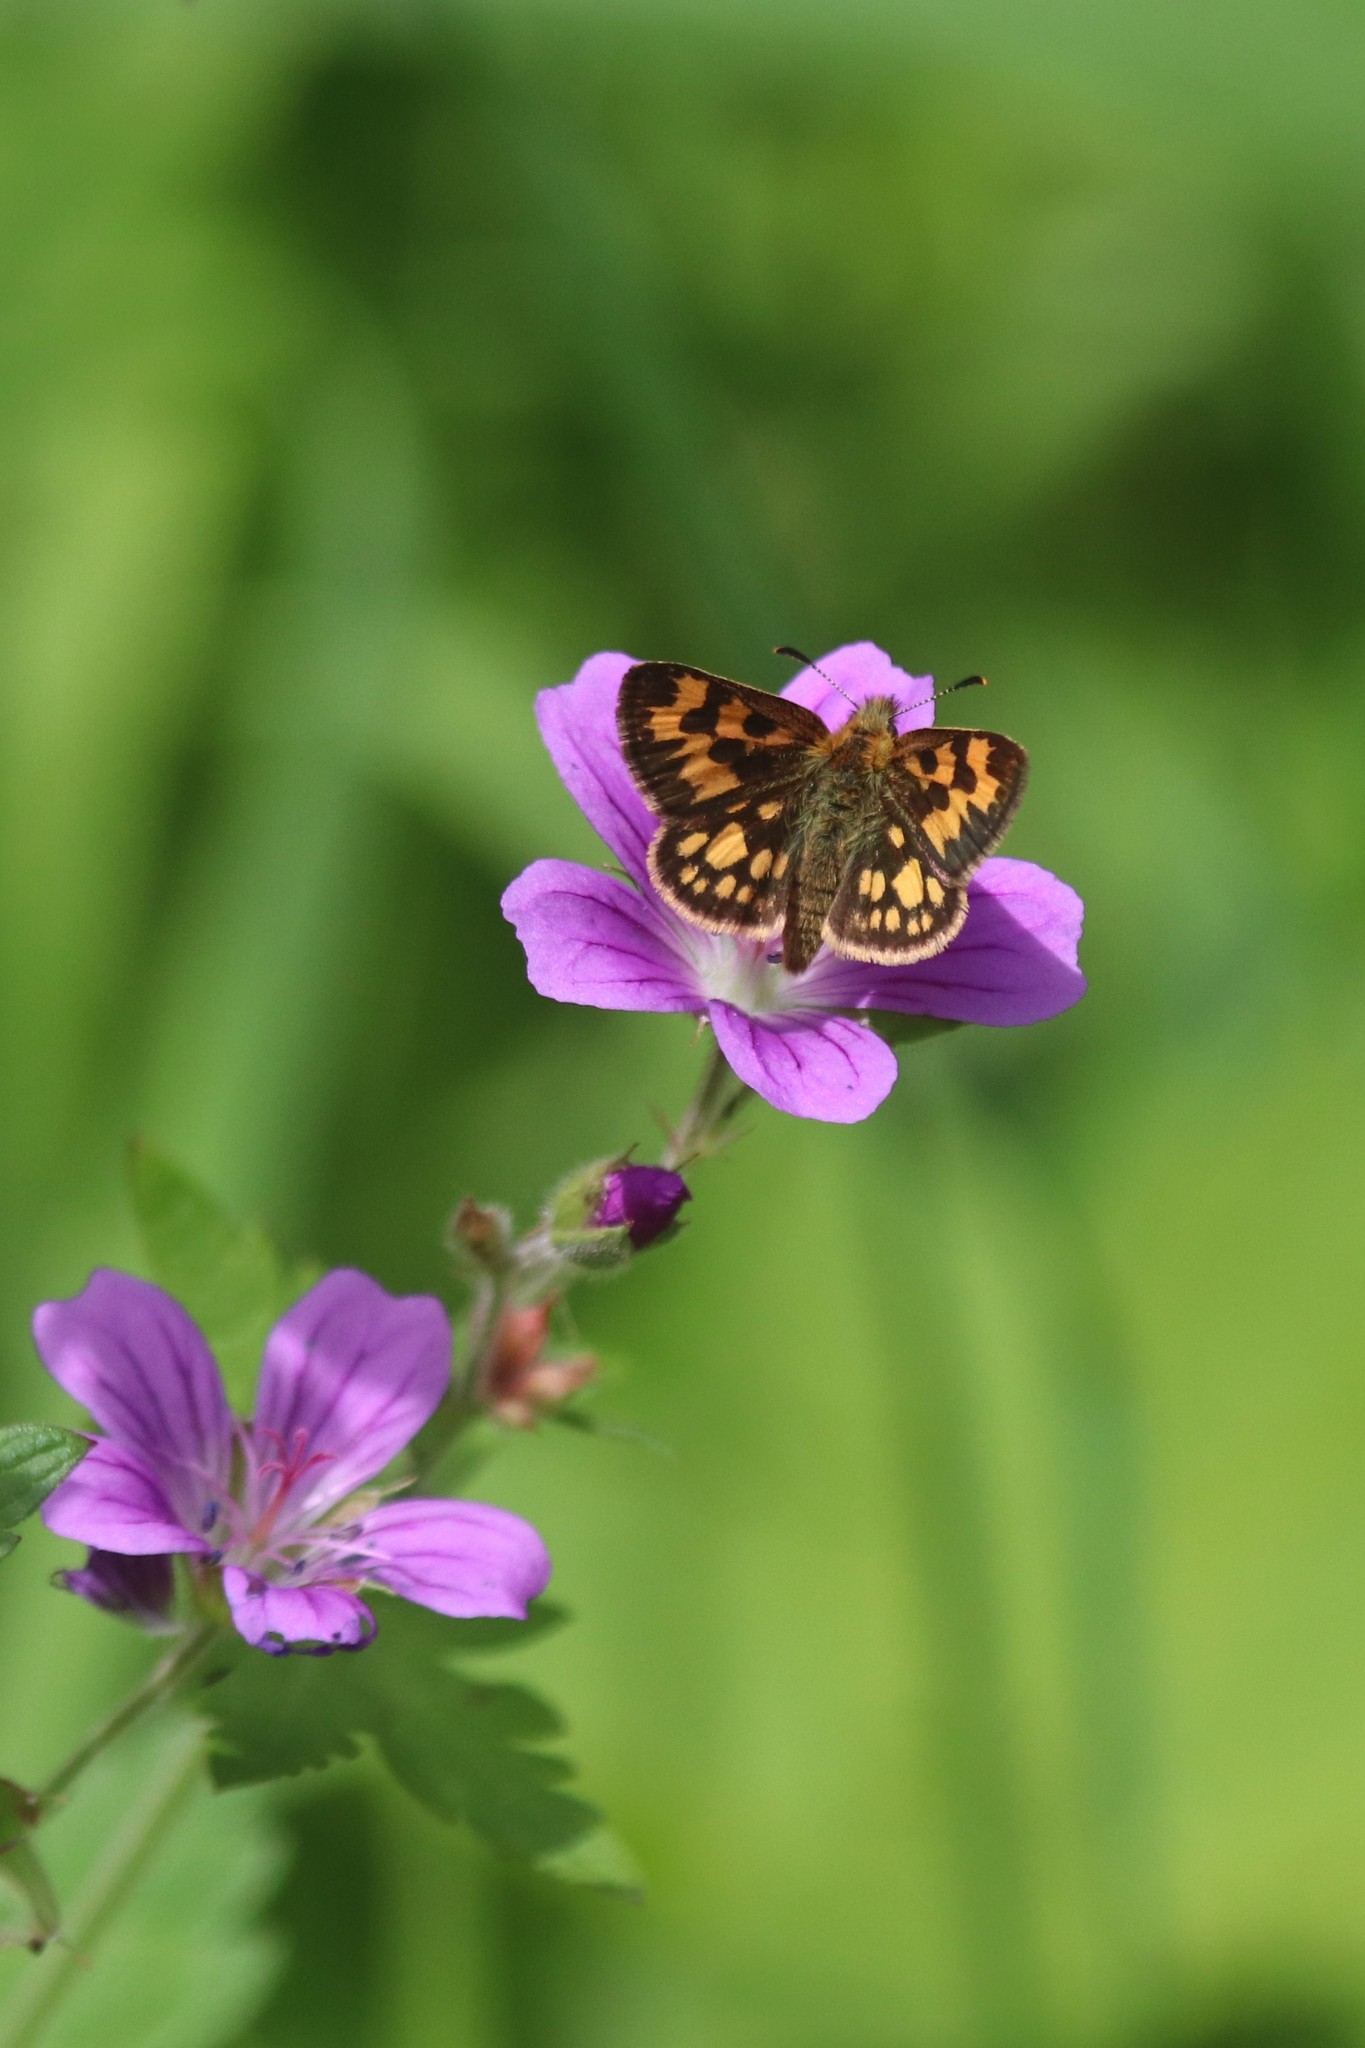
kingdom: Animalia
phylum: Arthropoda
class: Insecta
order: Lepidoptera
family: Hesperiidae
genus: Carterocephalus
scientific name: Carterocephalus silvicola
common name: Northern chequered skipper
